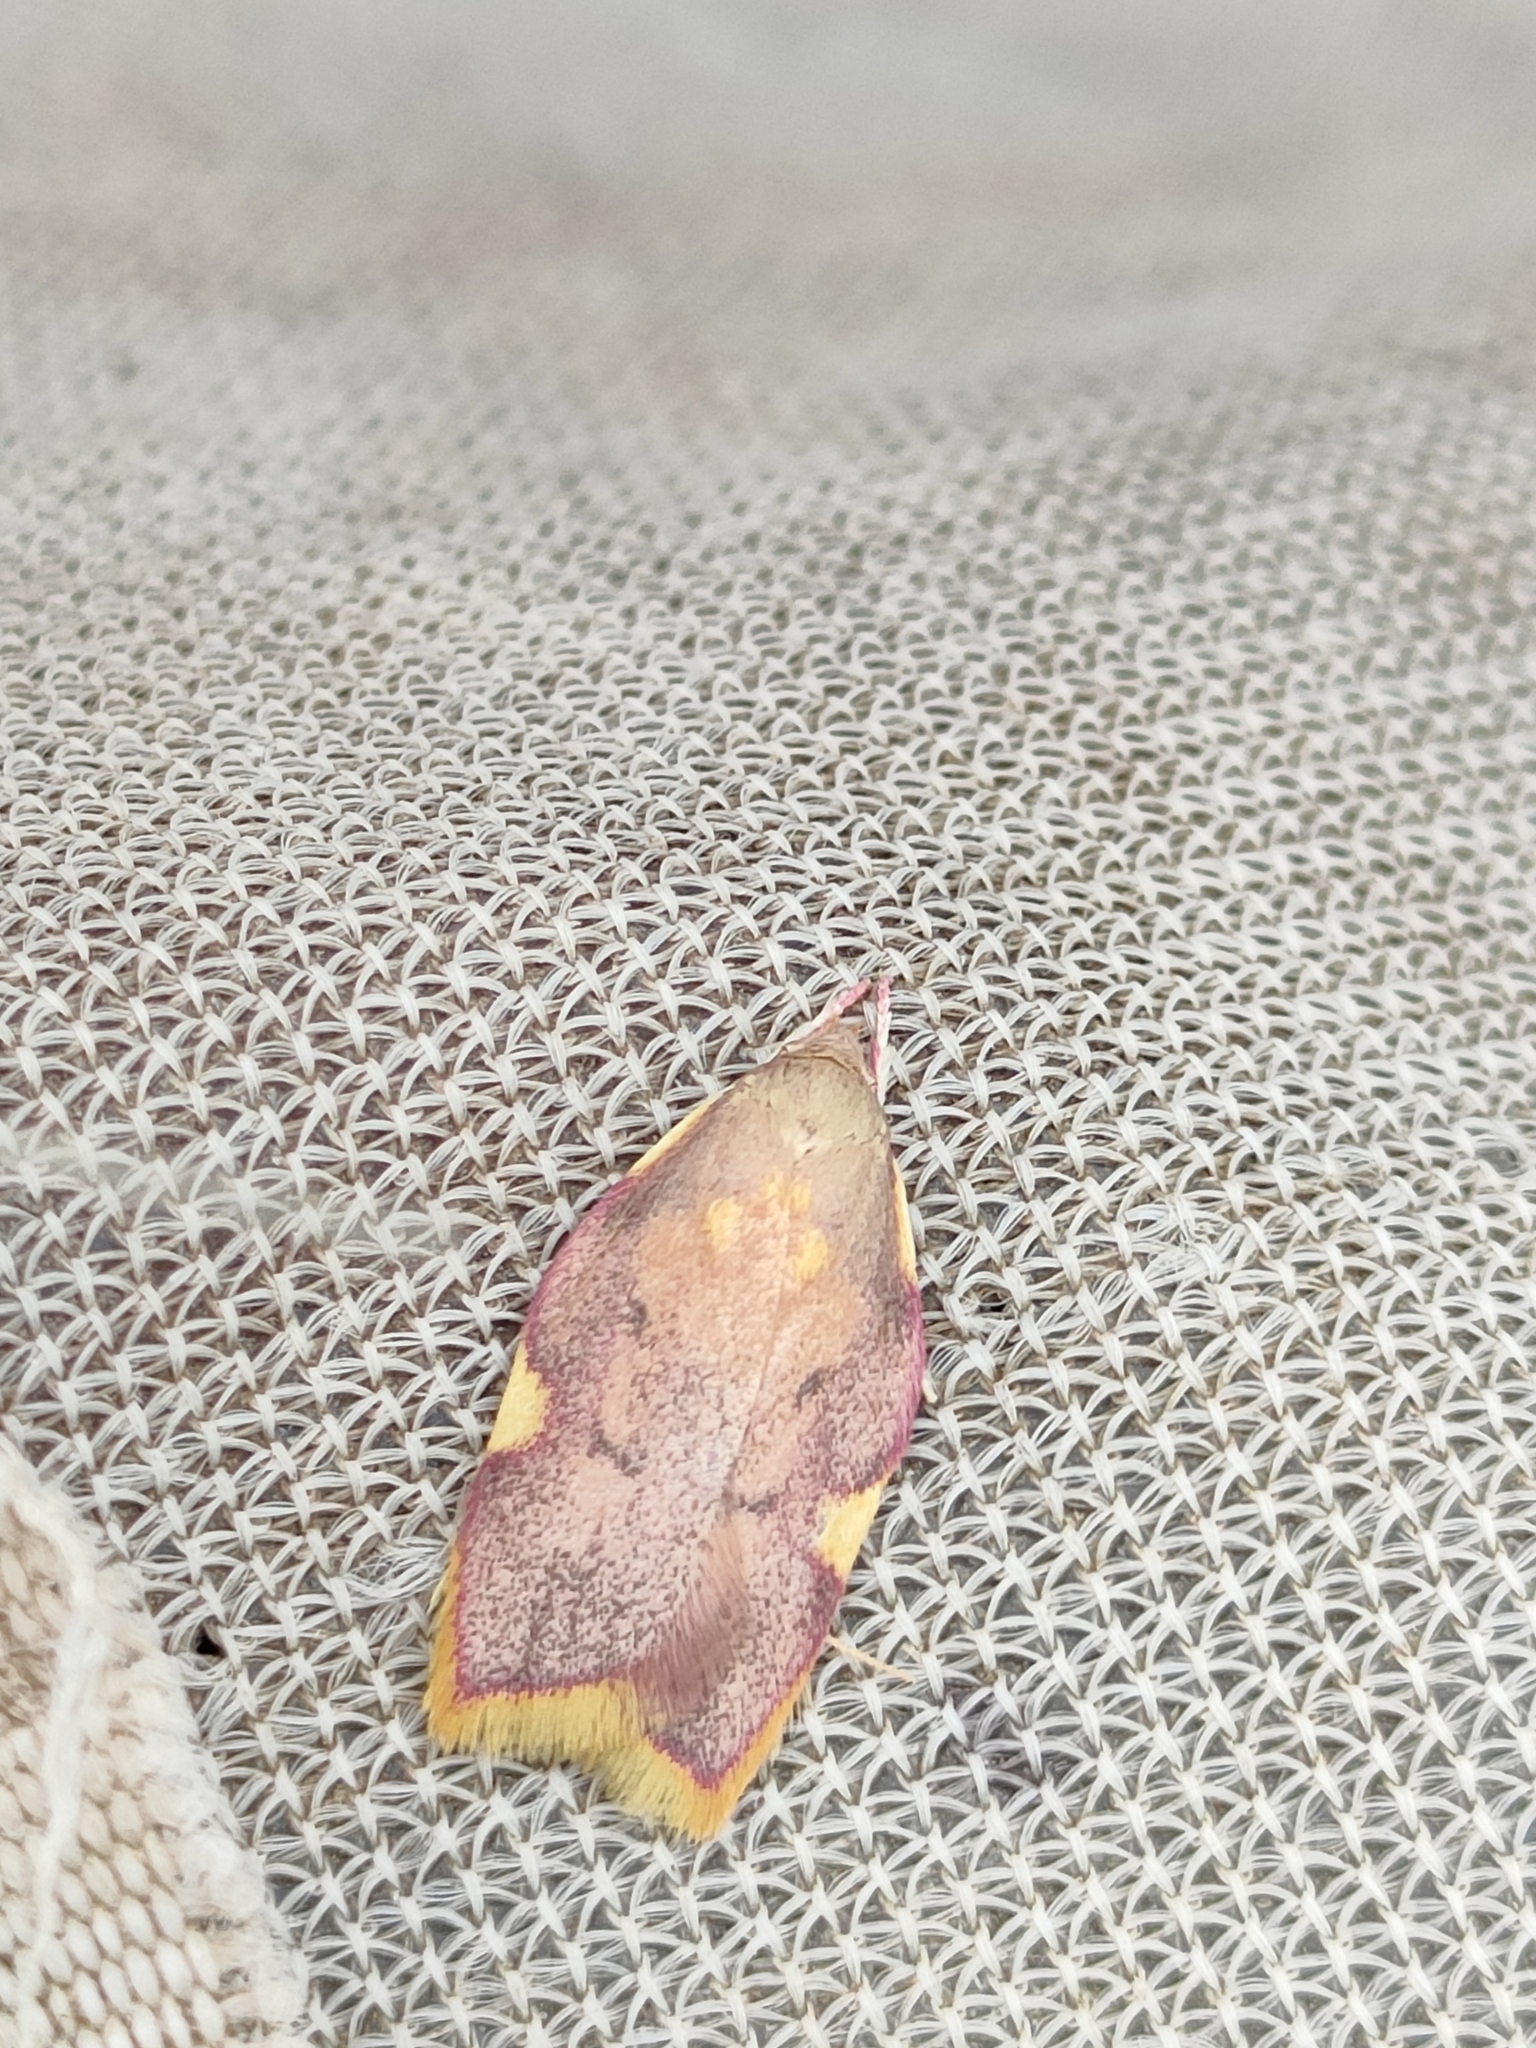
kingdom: Animalia
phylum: Arthropoda
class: Insecta
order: Lepidoptera
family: Peleopodidae
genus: Carcina
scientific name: Carcina quercana
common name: Moth
